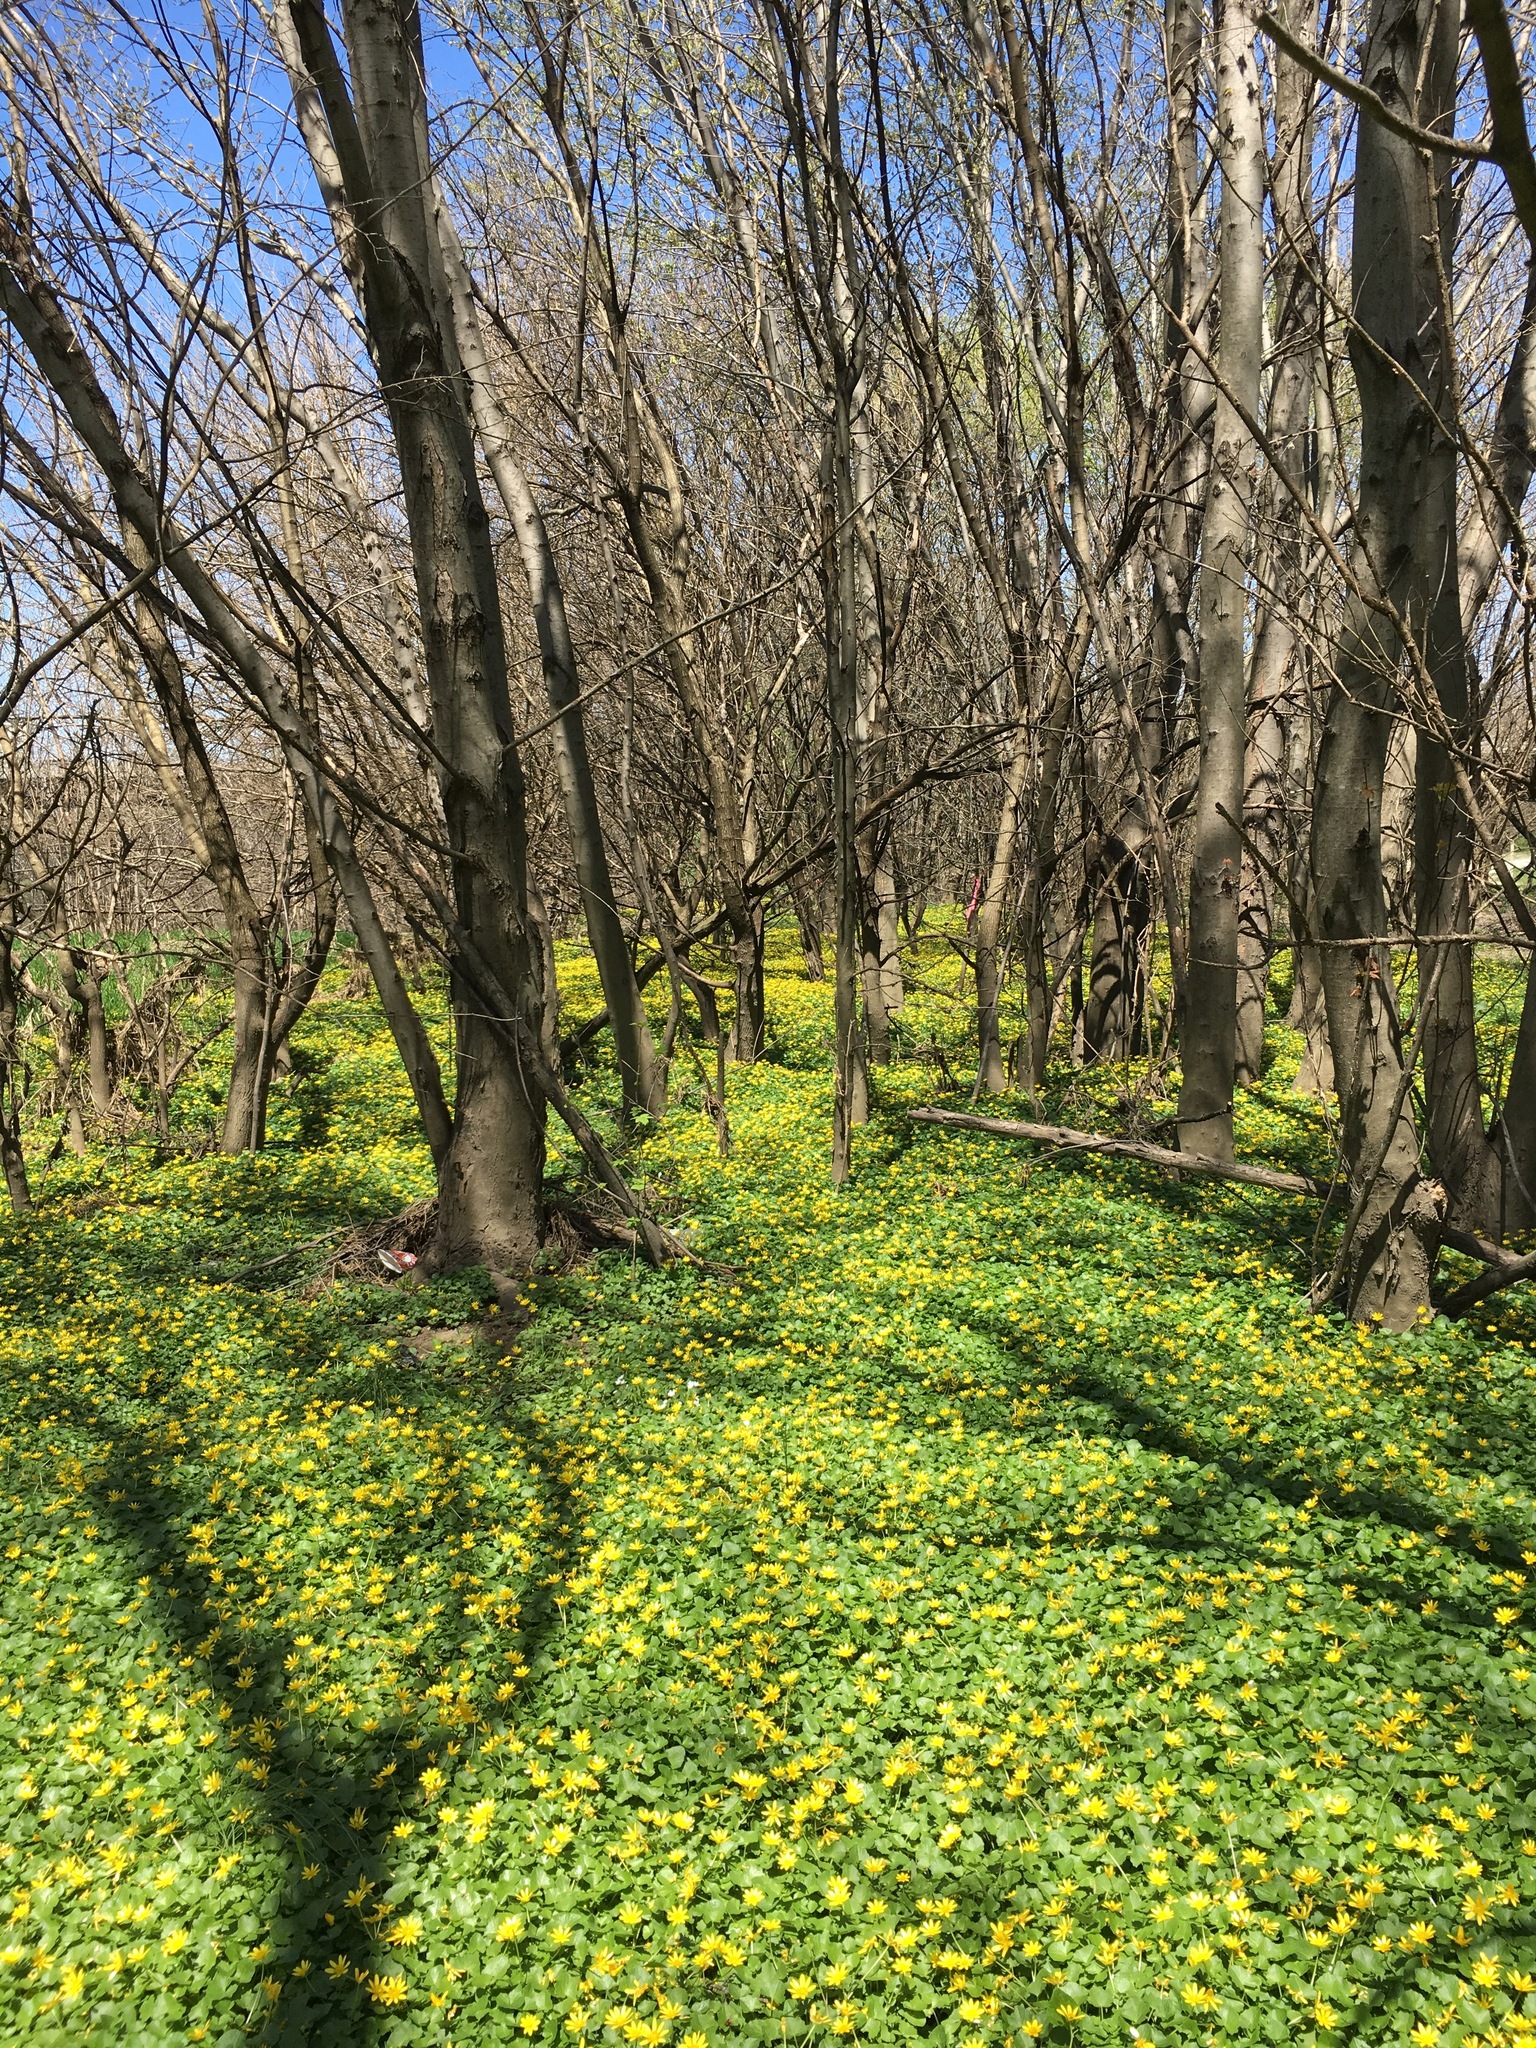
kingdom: Plantae
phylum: Tracheophyta
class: Magnoliopsida
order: Ranunculales
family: Ranunculaceae
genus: Ficaria
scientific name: Ficaria verna
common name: Lesser celandine
